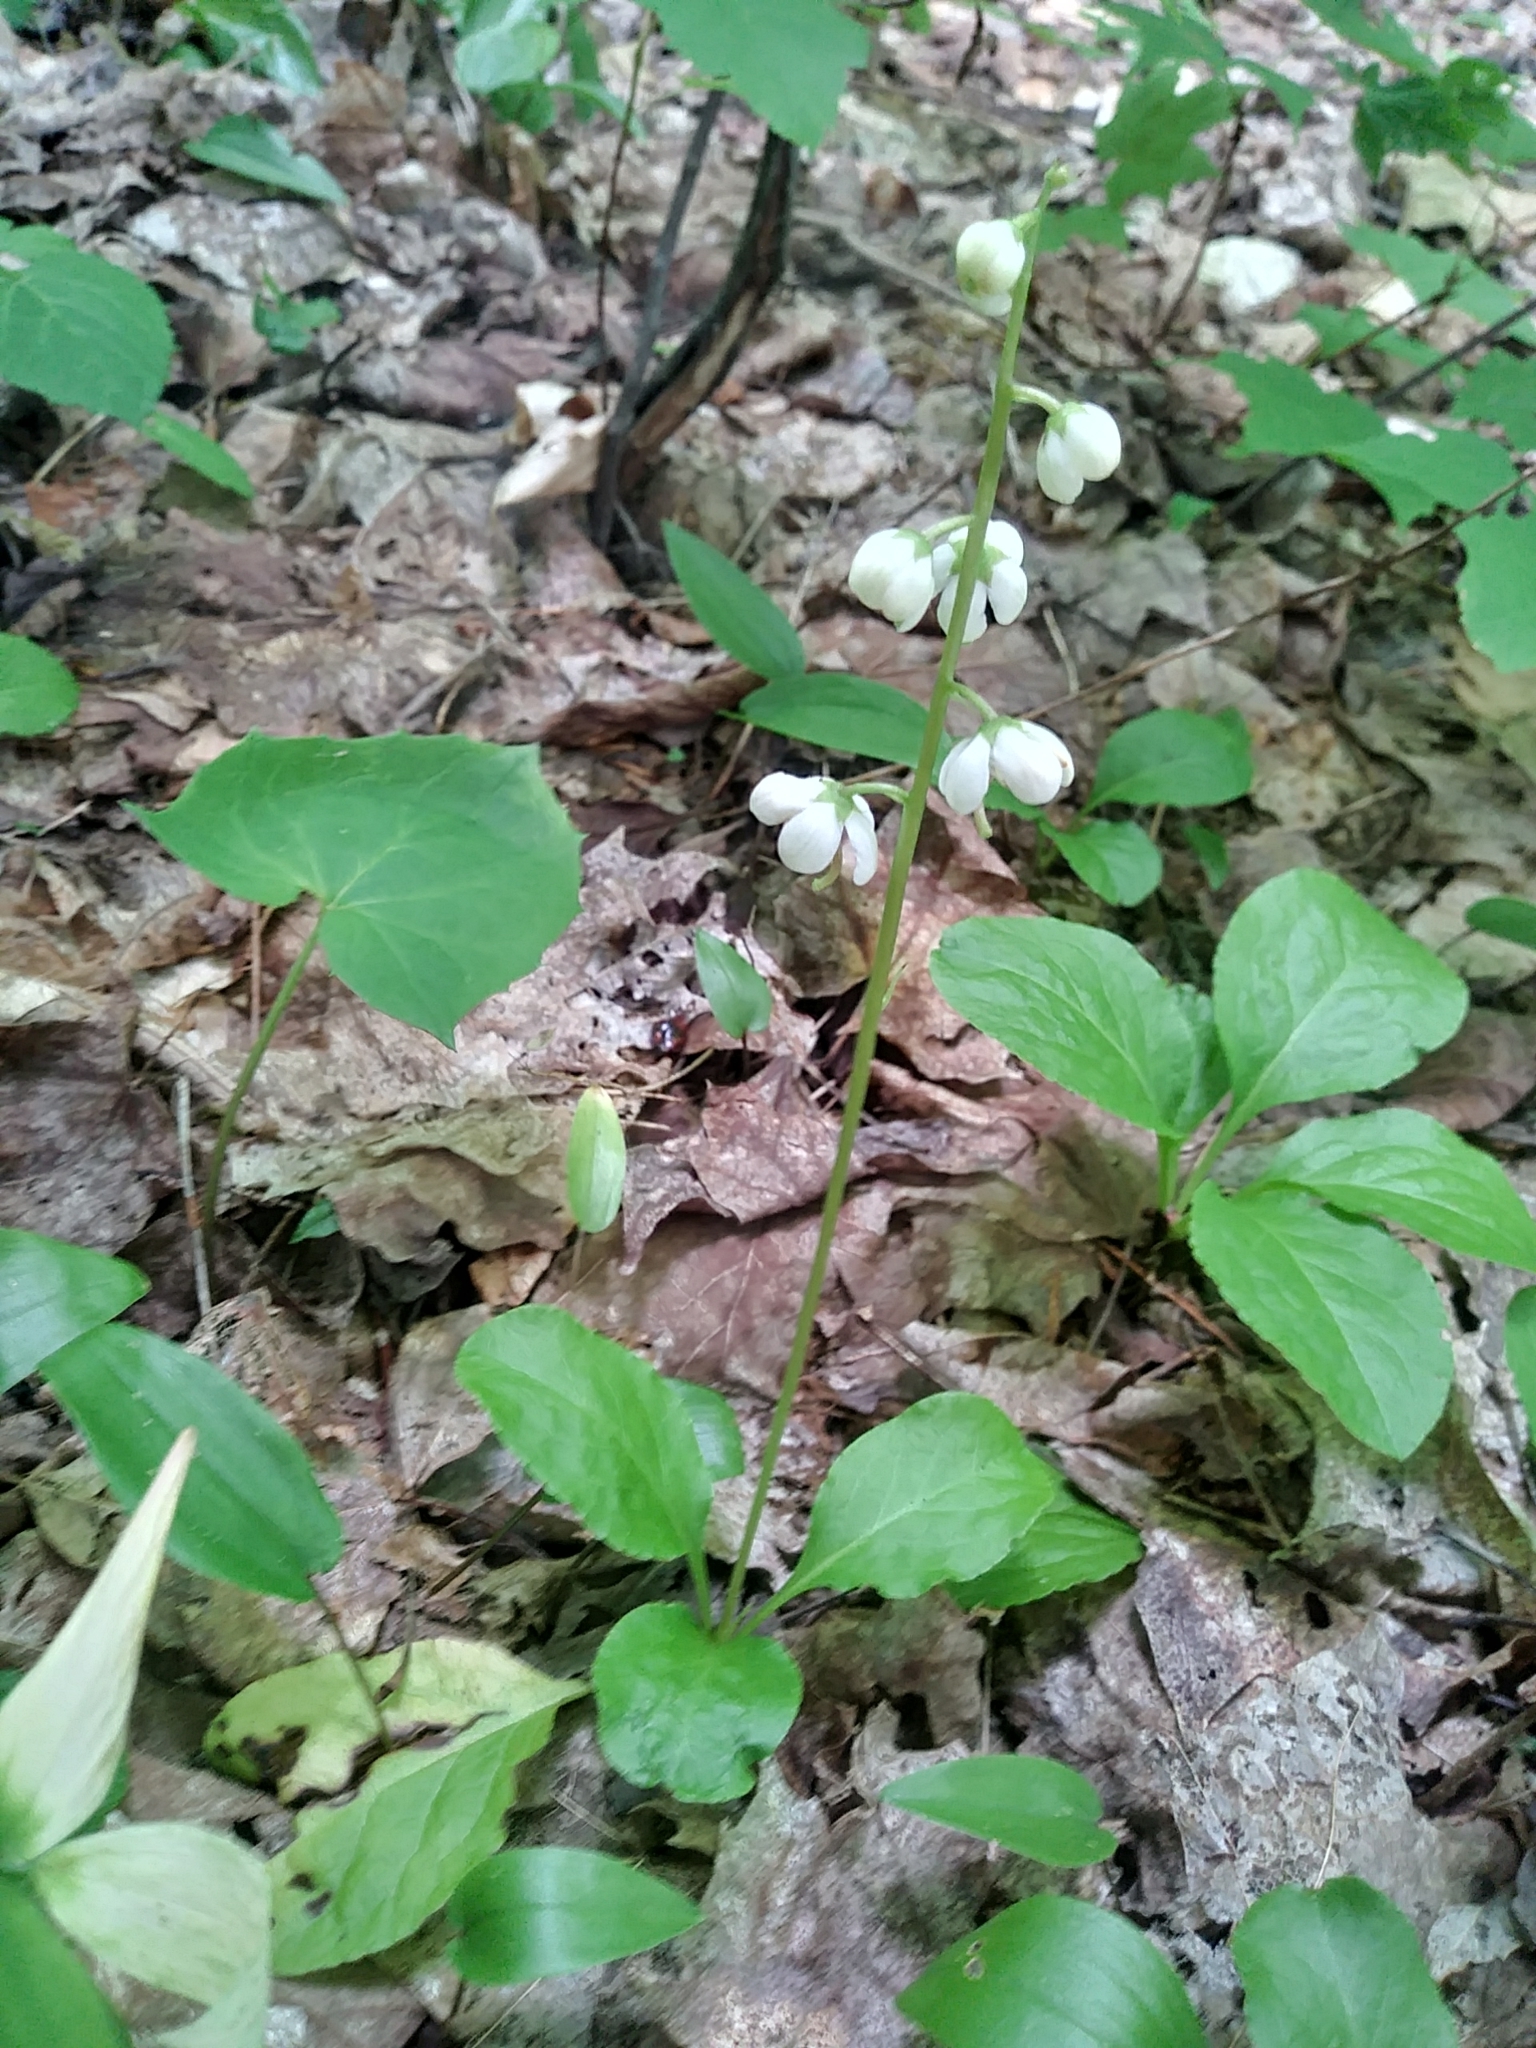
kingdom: Plantae
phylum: Tracheophyta
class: Magnoliopsida
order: Ericales
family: Ericaceae
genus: Pyrola
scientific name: Pyrola elliptica
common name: Shinleaf
